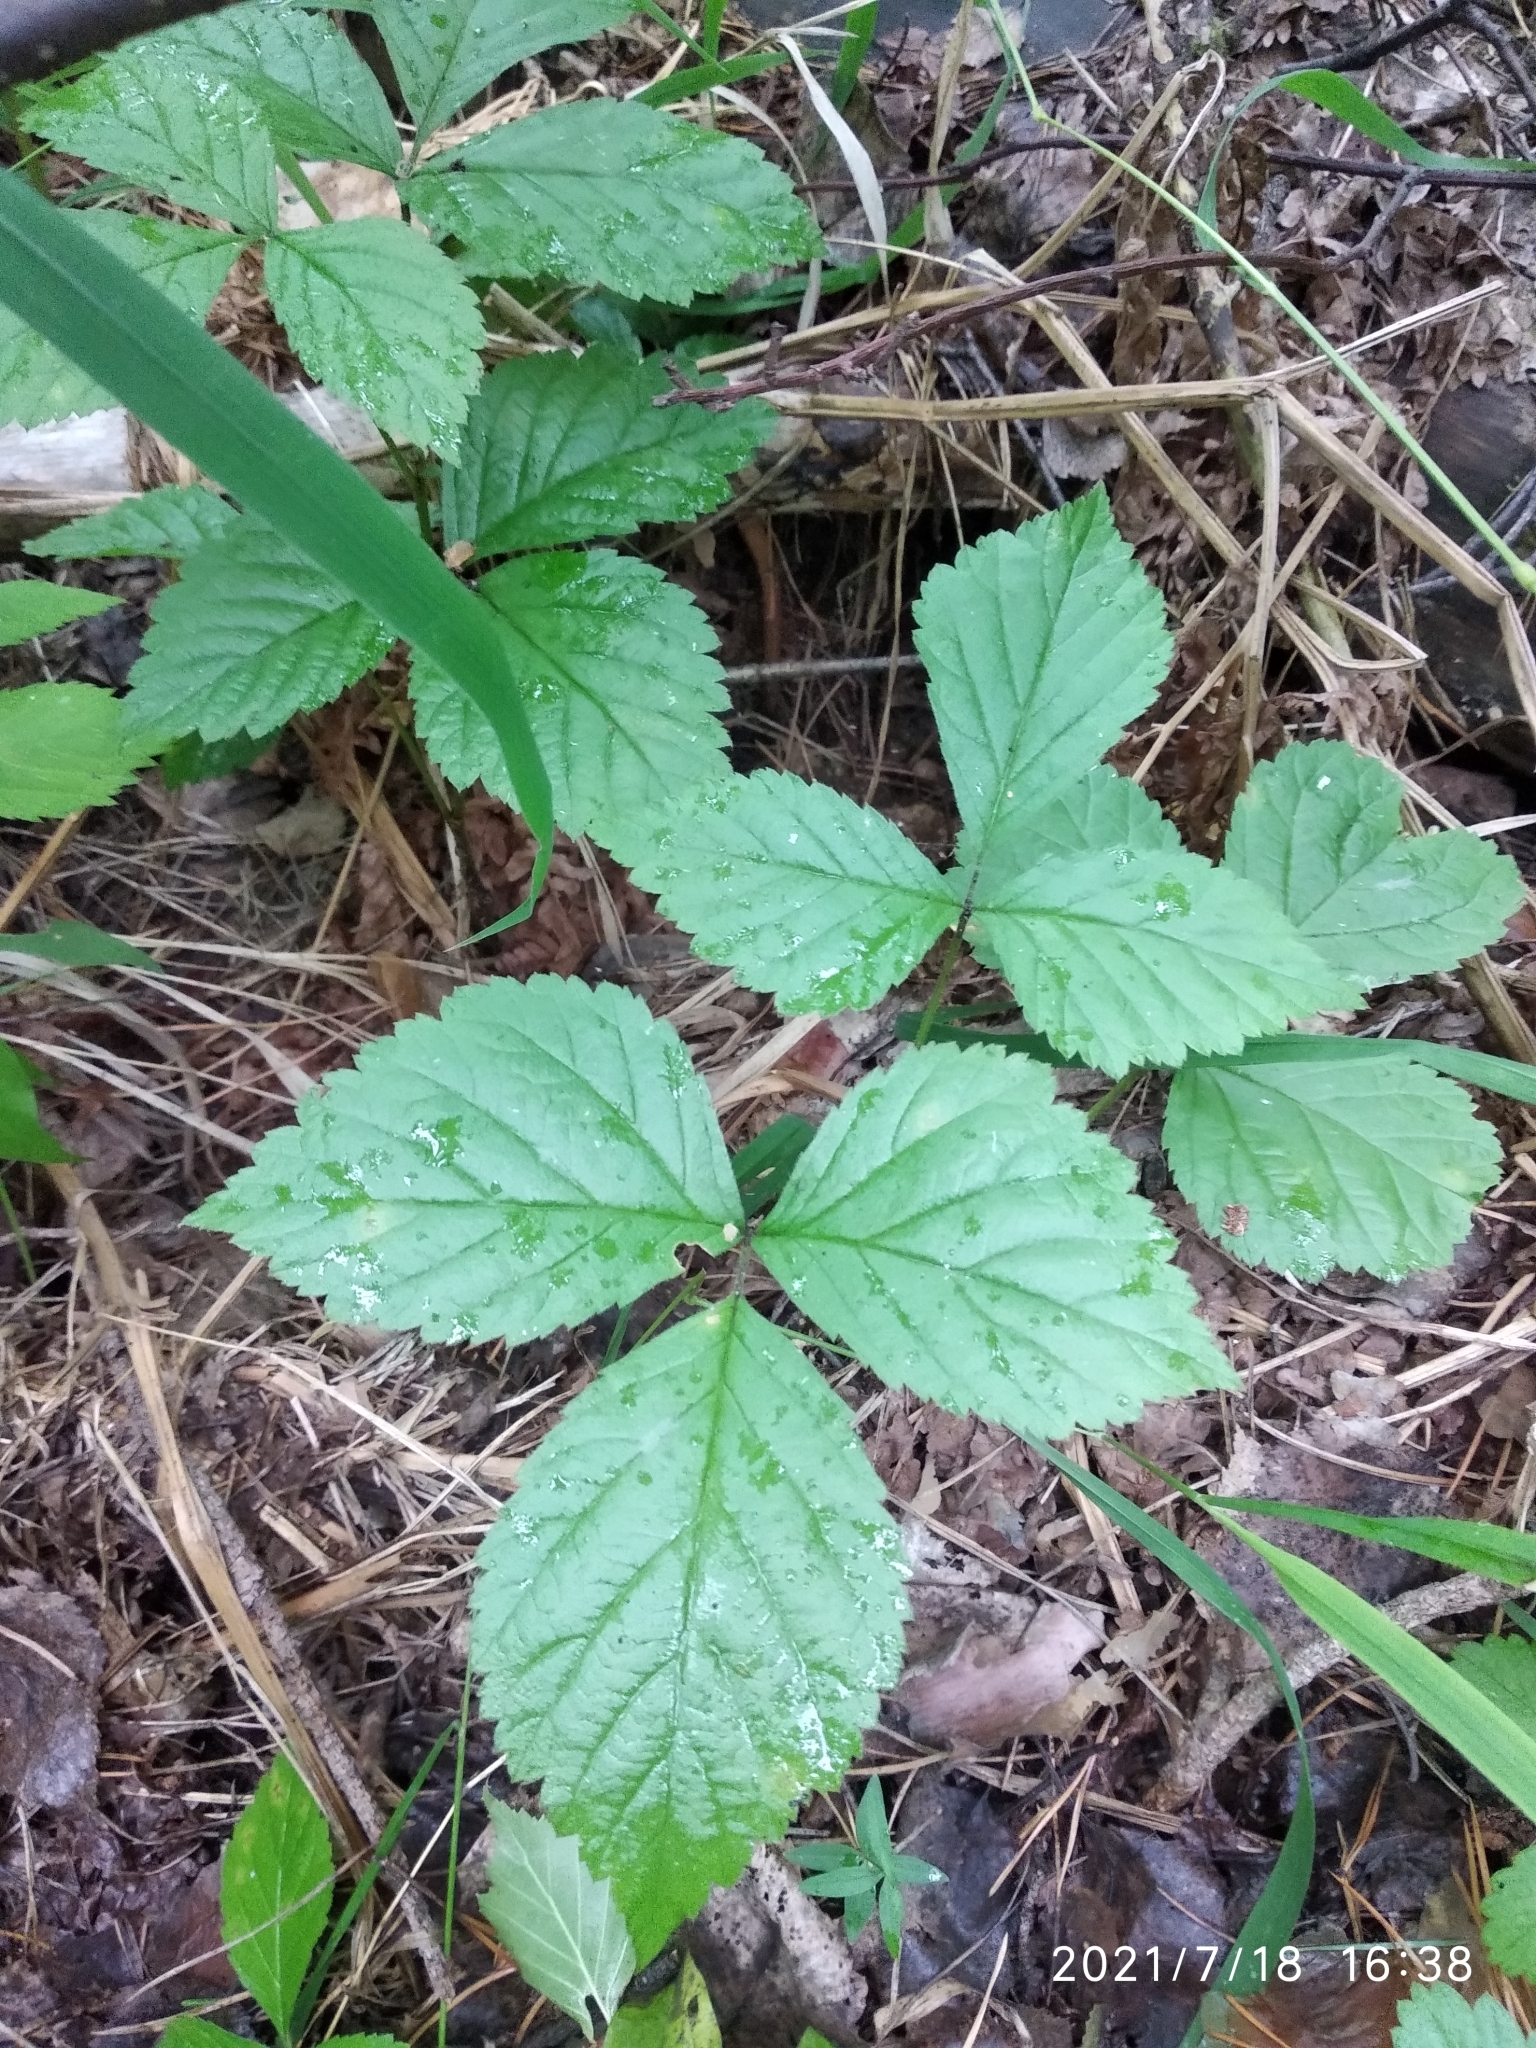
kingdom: Plantae
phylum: Tracheophyta
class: Magnoliopsida
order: Rosales
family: Rosaceae
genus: Rubus
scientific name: Rubus saxatilis
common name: Stone bramble
